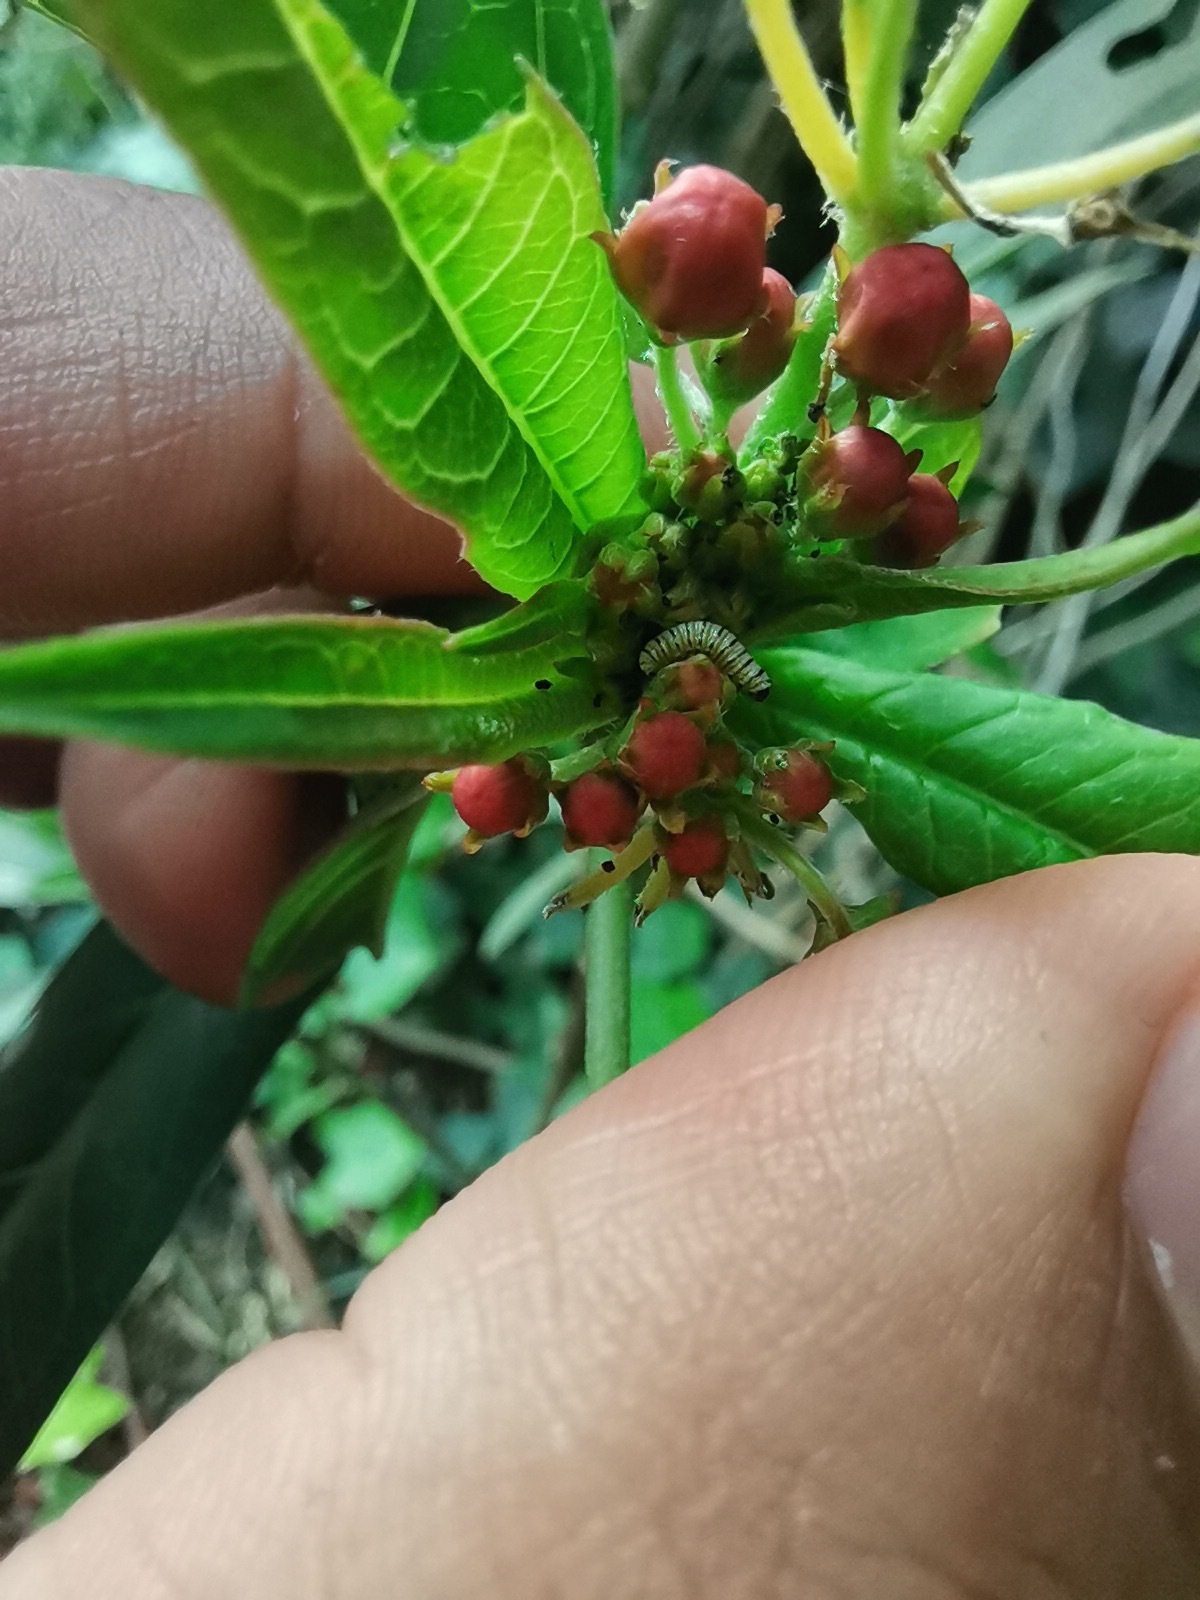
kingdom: Animalia
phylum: Arthropoda
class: Insecta
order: Lepidoptera
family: Nymphalidae
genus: Danaus
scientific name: Danaus plexippus
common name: Monarch
